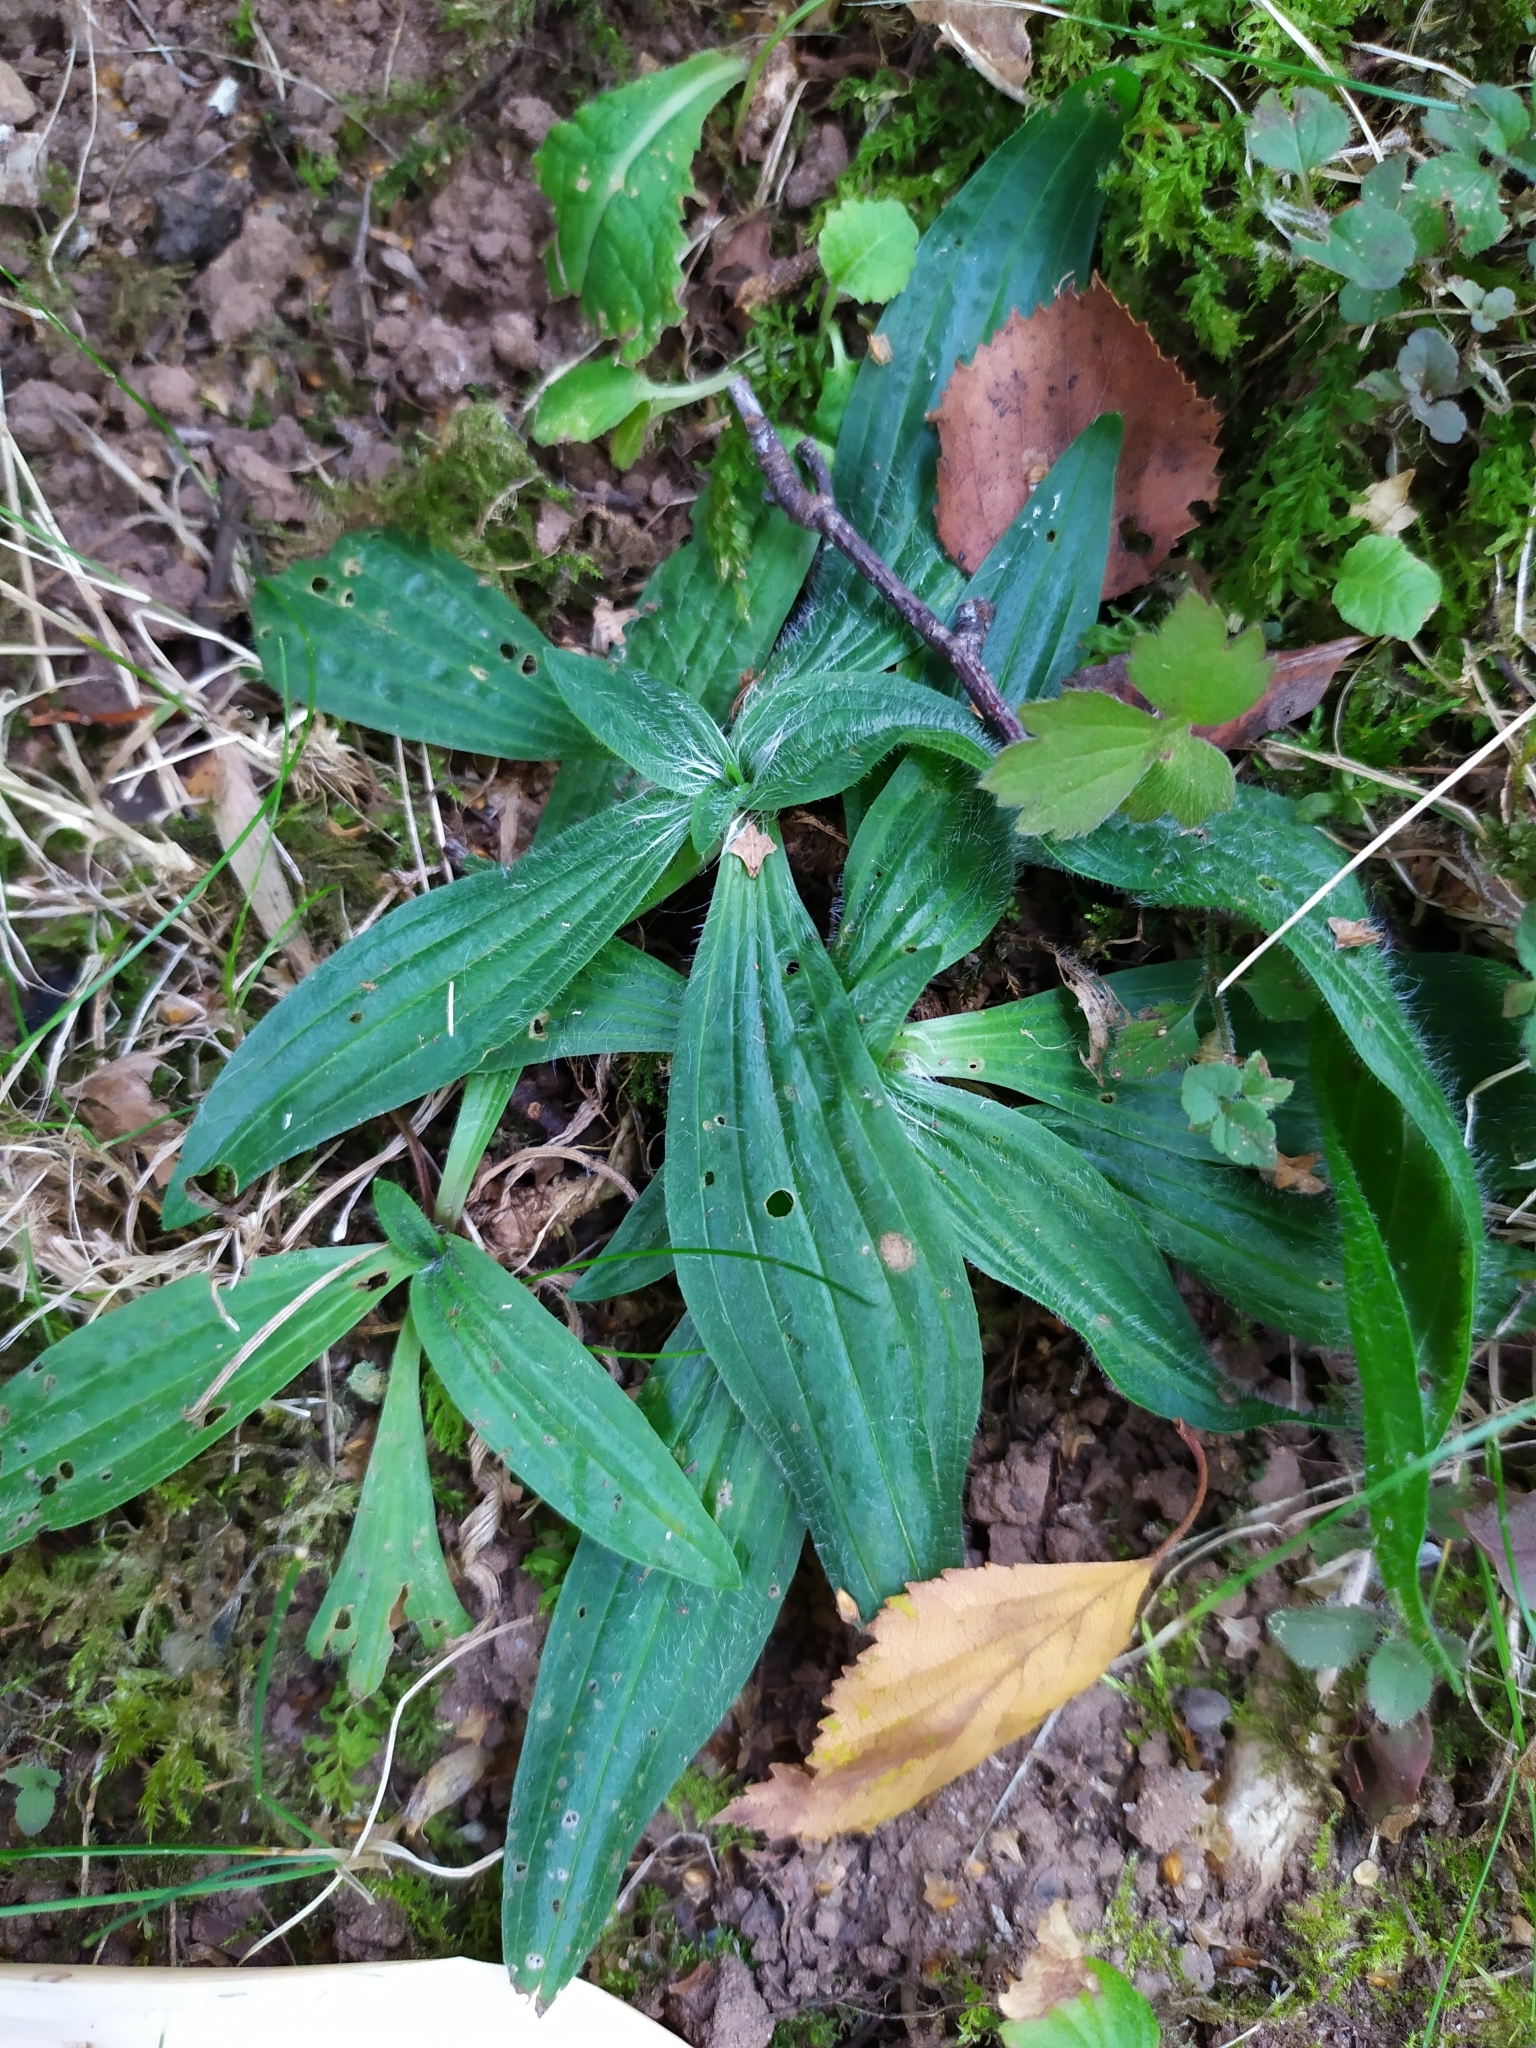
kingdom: Plantae
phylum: Tracheophyta
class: Magnoliopsida
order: Lamiales
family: Plantaginaceae
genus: Plantago
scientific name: Plantago lanceolata
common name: Ribwort plantain
